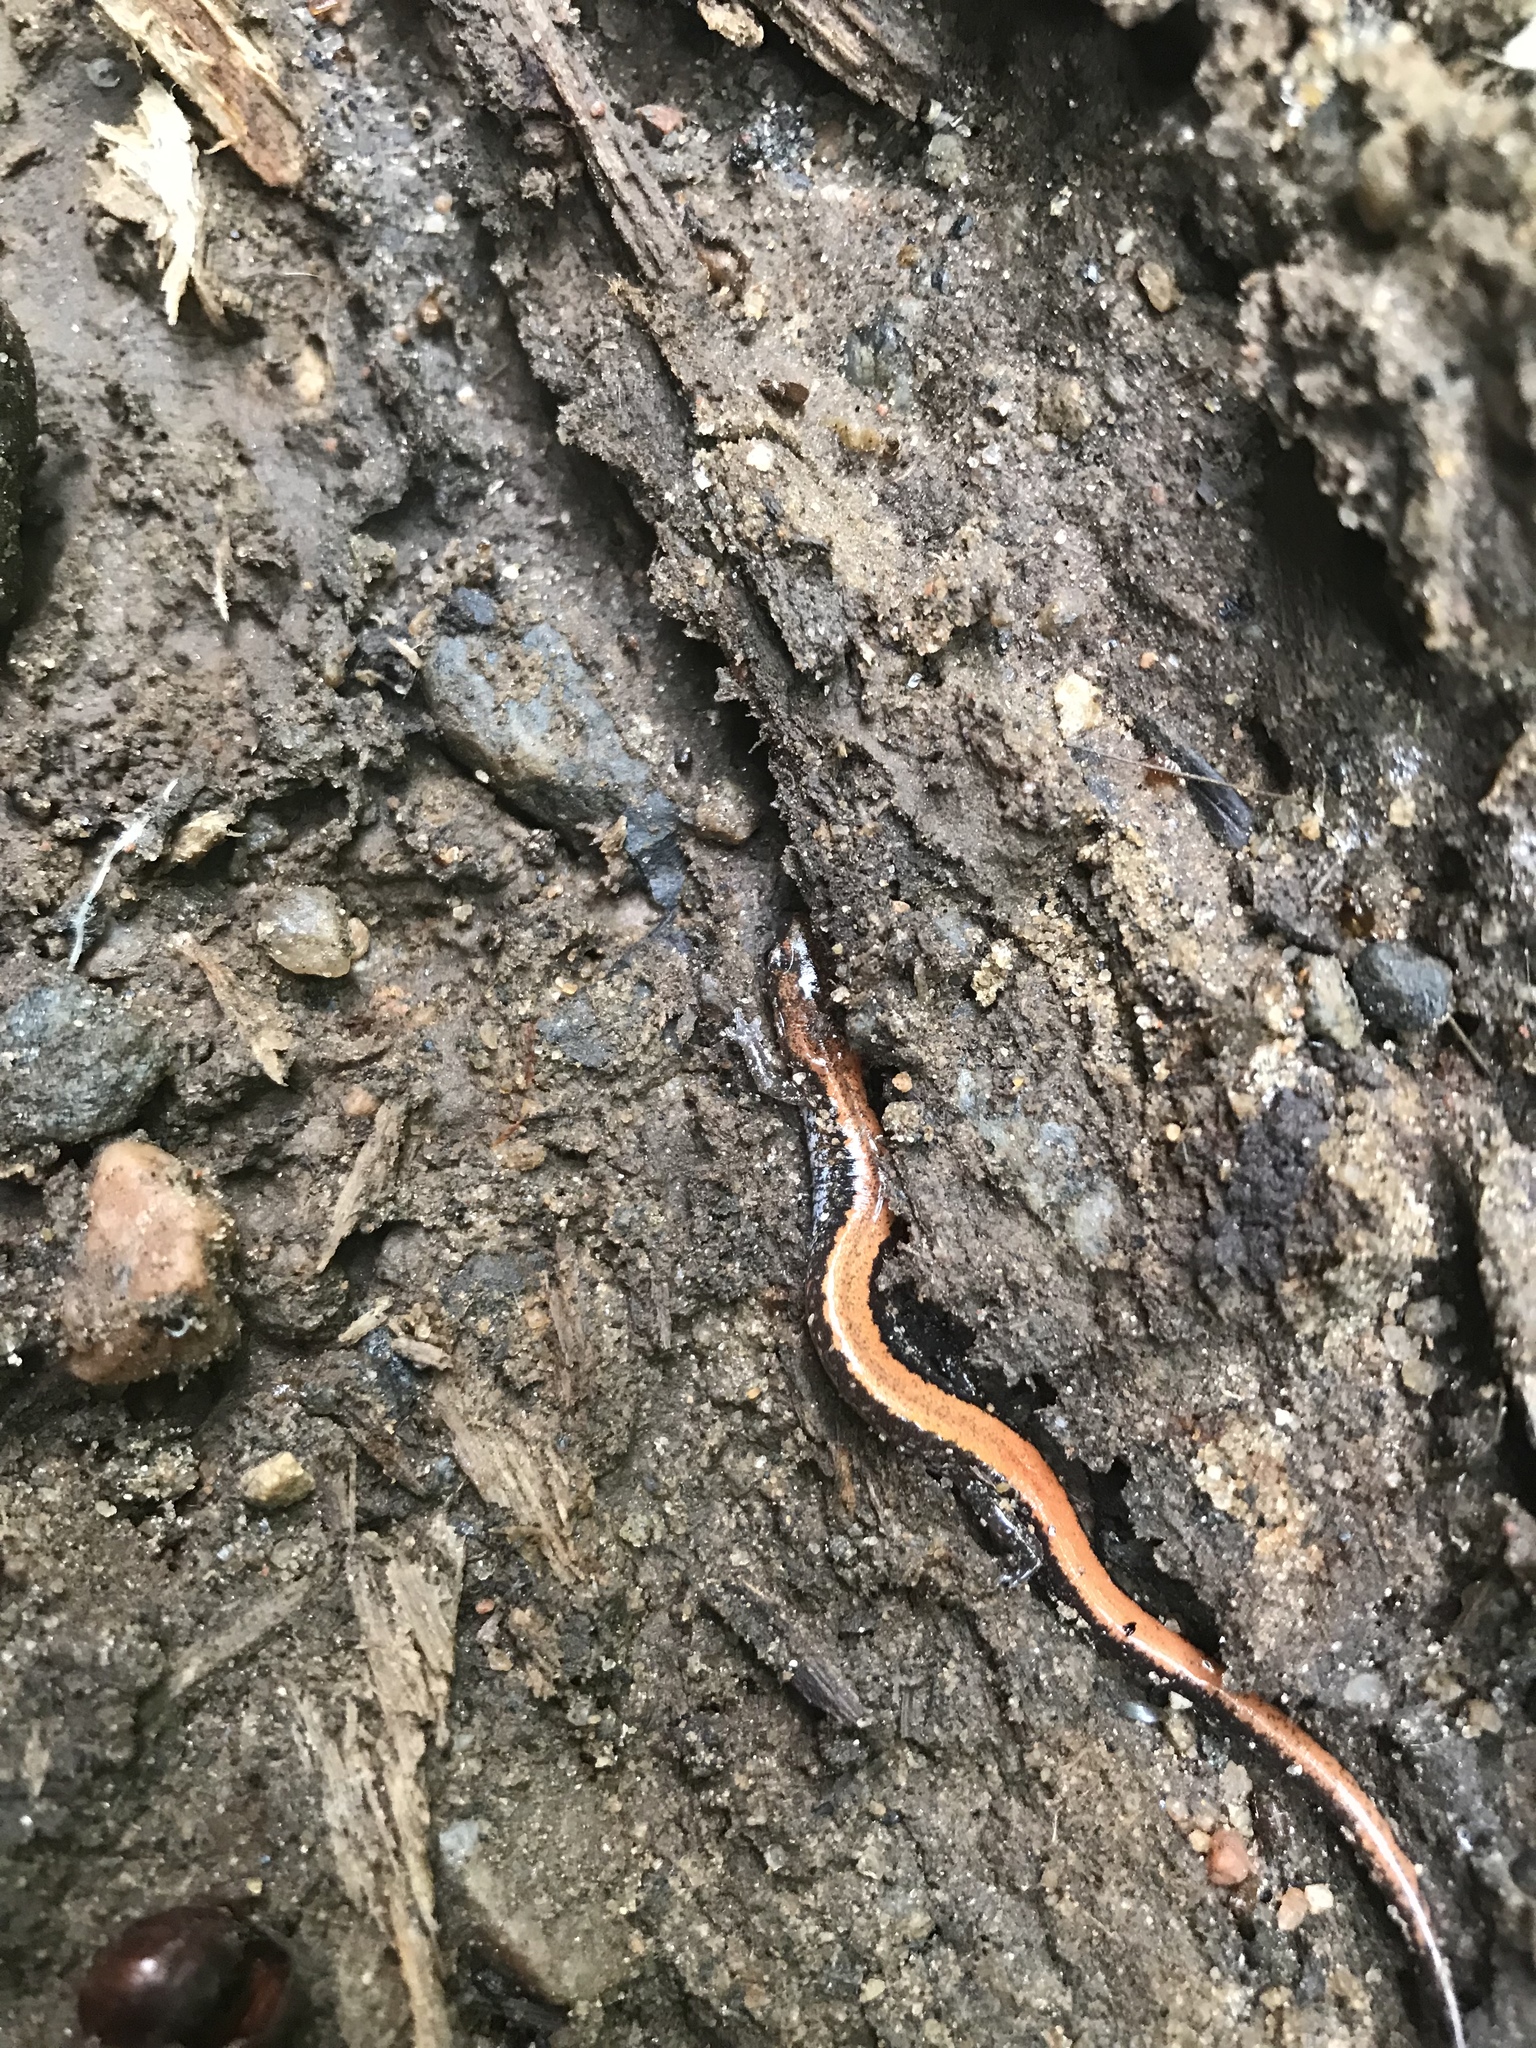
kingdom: Animalia
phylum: Chordata
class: Amphibia
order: Caudata
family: Plethodontidae
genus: Plethodon
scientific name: Plethodon cinereus
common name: Redback salamander
